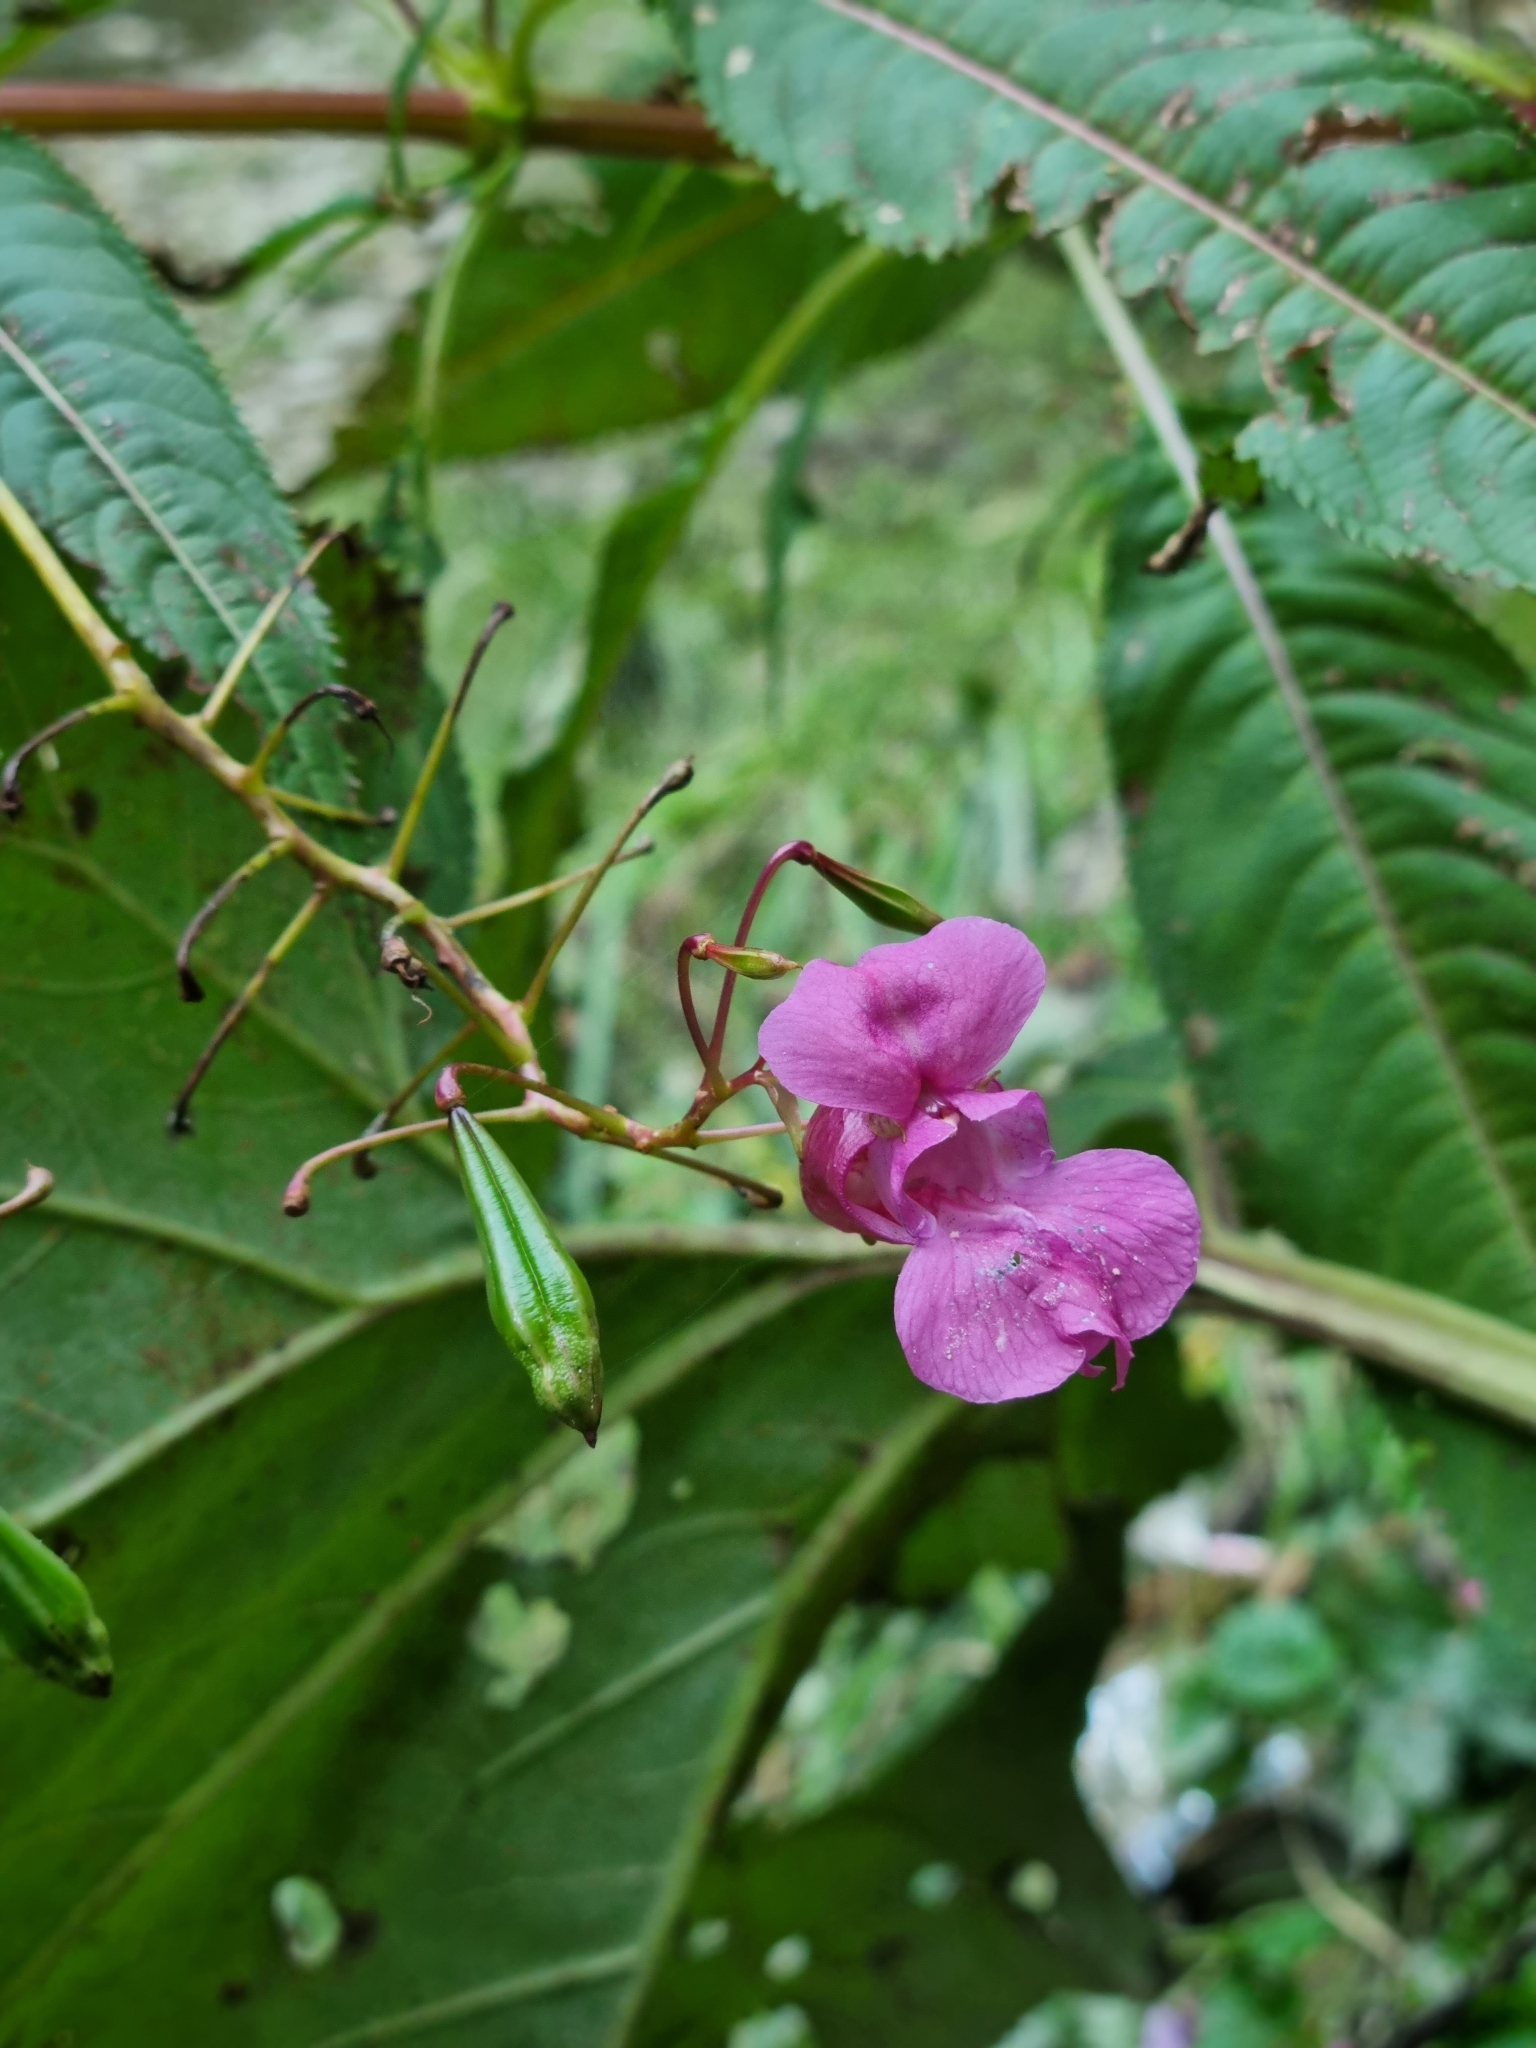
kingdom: Plantae
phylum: Tracheophyta
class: Magnoliopsida
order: Ericales
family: Balsaminaceae
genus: Impatiens
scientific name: Impatiens glandulifera
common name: Himalayan balsam
